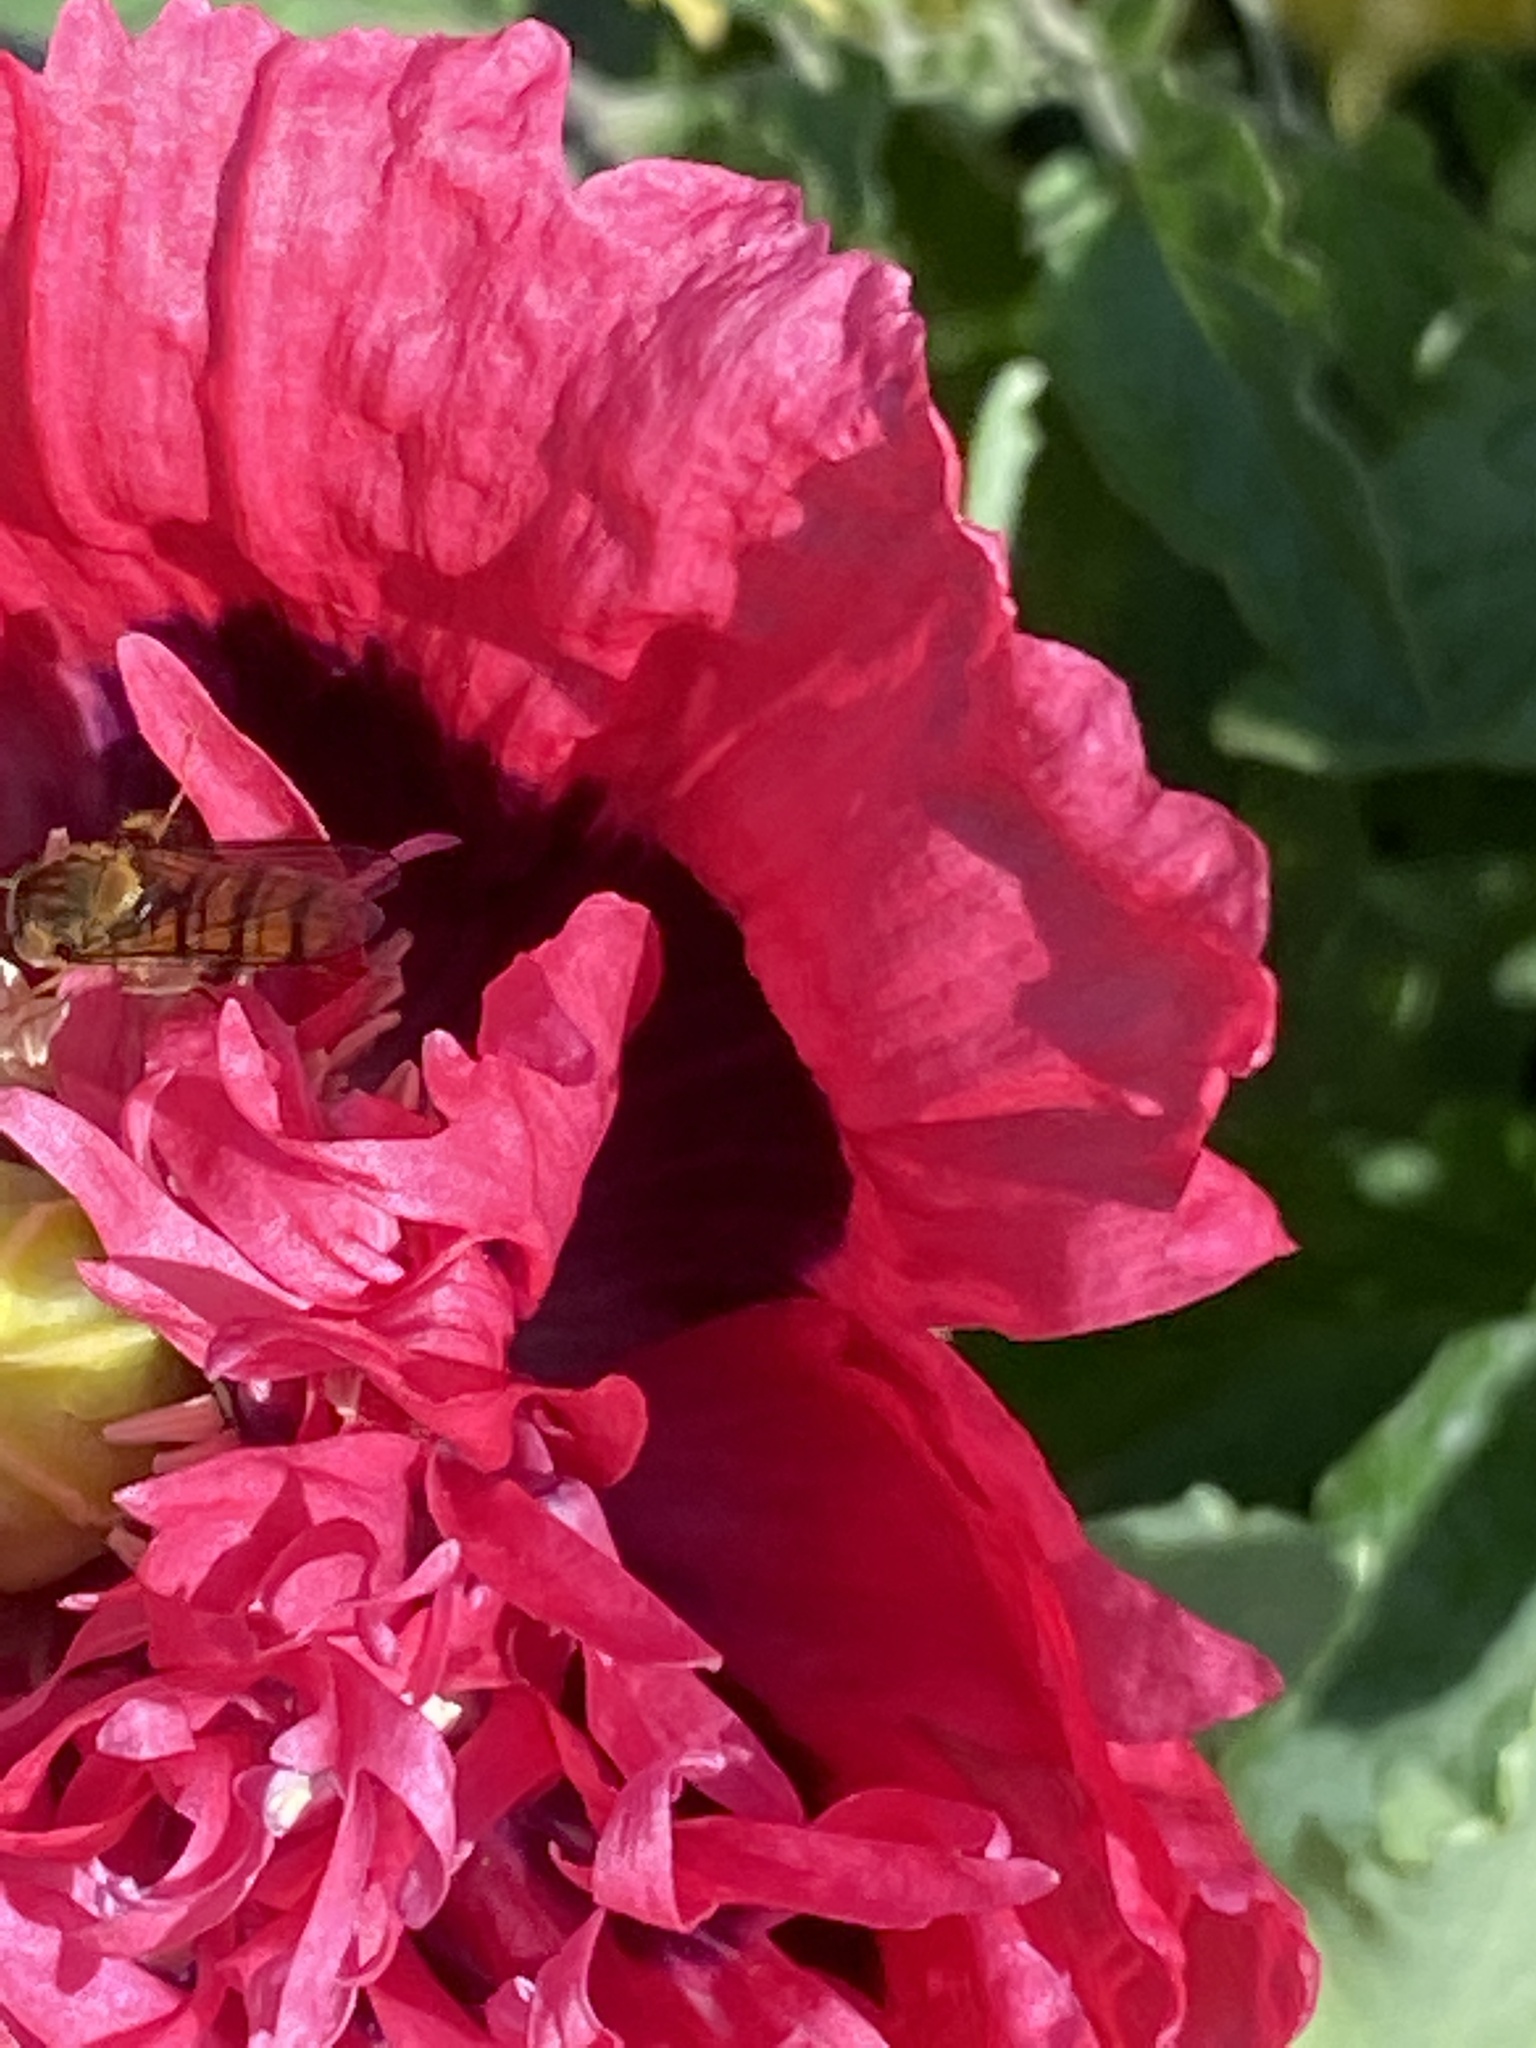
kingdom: Animalia
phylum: Arthropoda
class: Insecta
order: Diptera
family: Syrphidae
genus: Episyrphus
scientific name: Episyrphus balteatus
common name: Marmalade hoverfly
